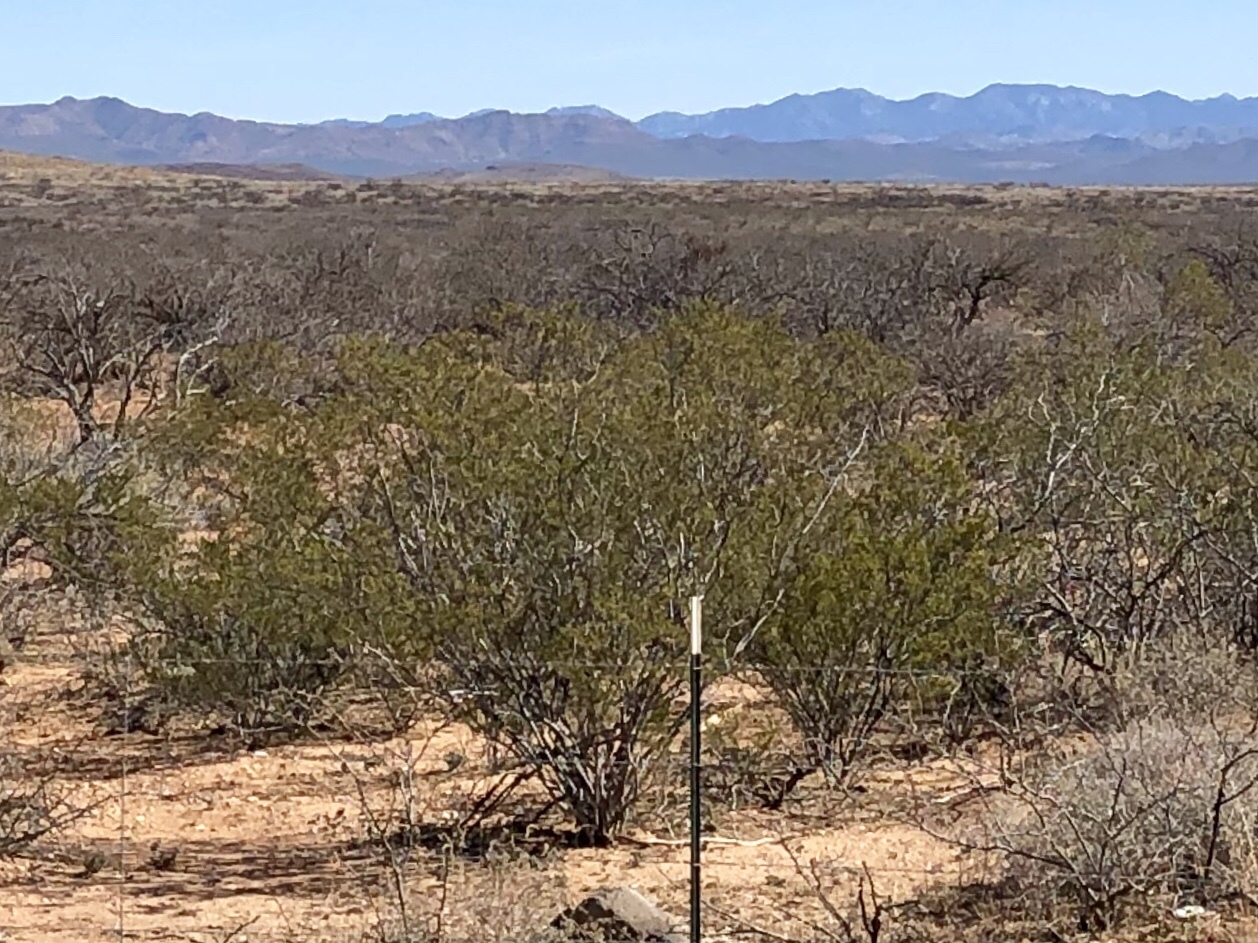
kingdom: Plantae
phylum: Tracheophyta
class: Magnoliopsida
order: Zygophyllales
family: Zygophyllaceae
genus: Larrea
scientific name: Larrea tridentata
